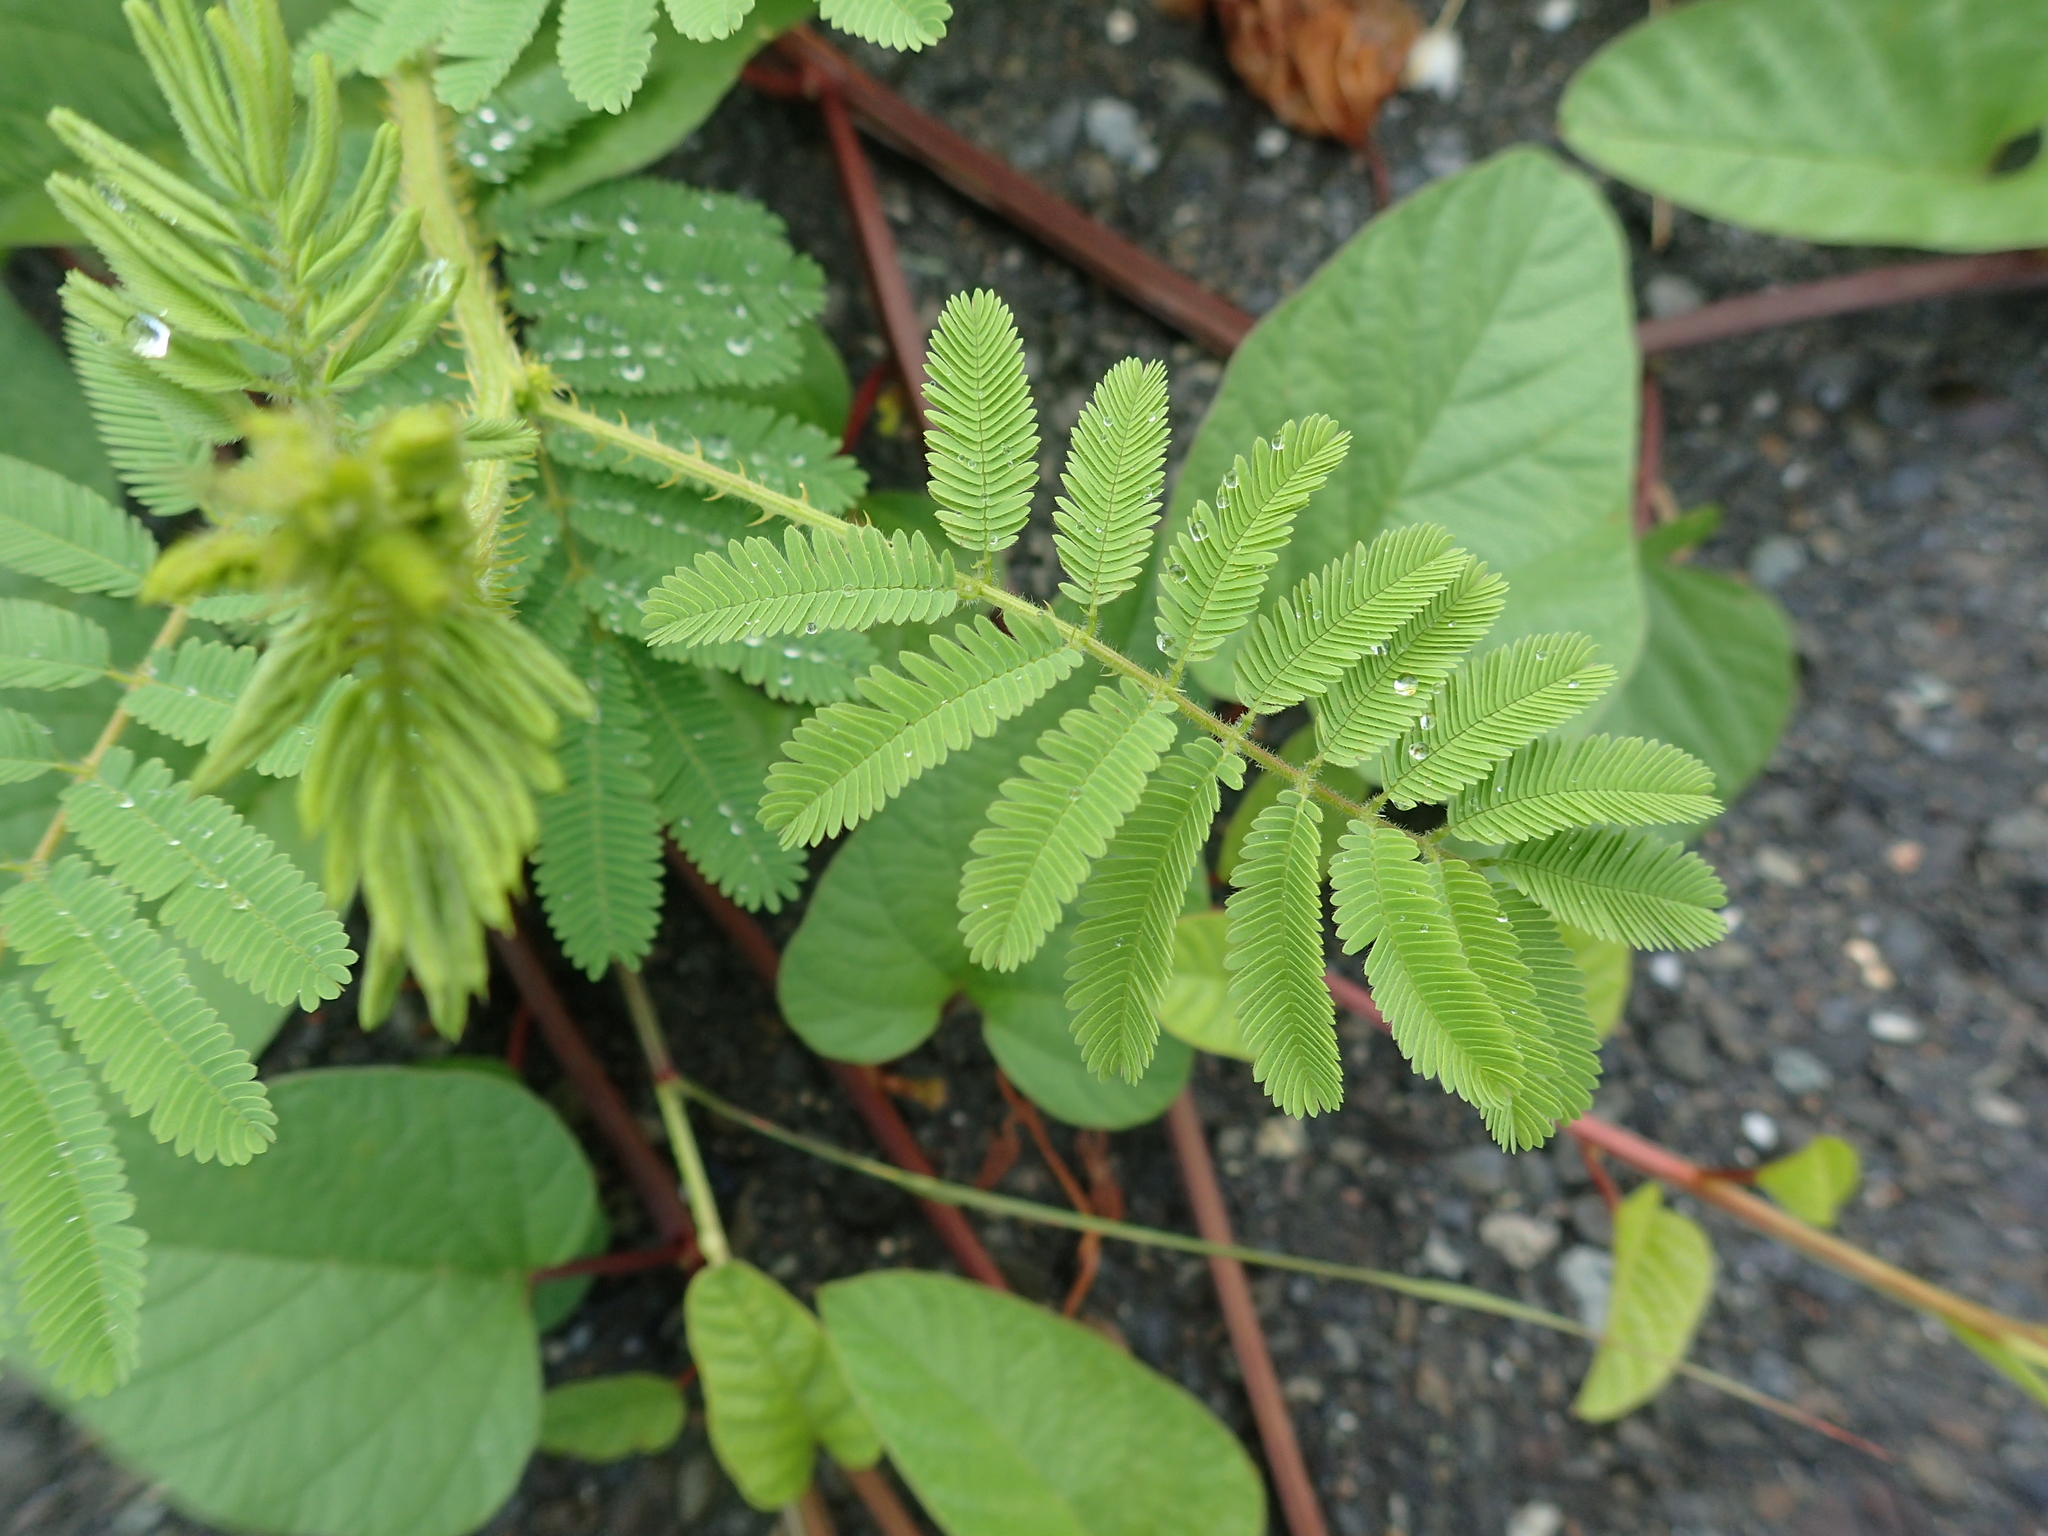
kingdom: Plantae
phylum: Tracheophyta
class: Magnoliopsida
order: Fabales
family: Fabaceae
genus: Mimosa
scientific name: Mimosa diplotricha
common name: Giant sensitive-plant
